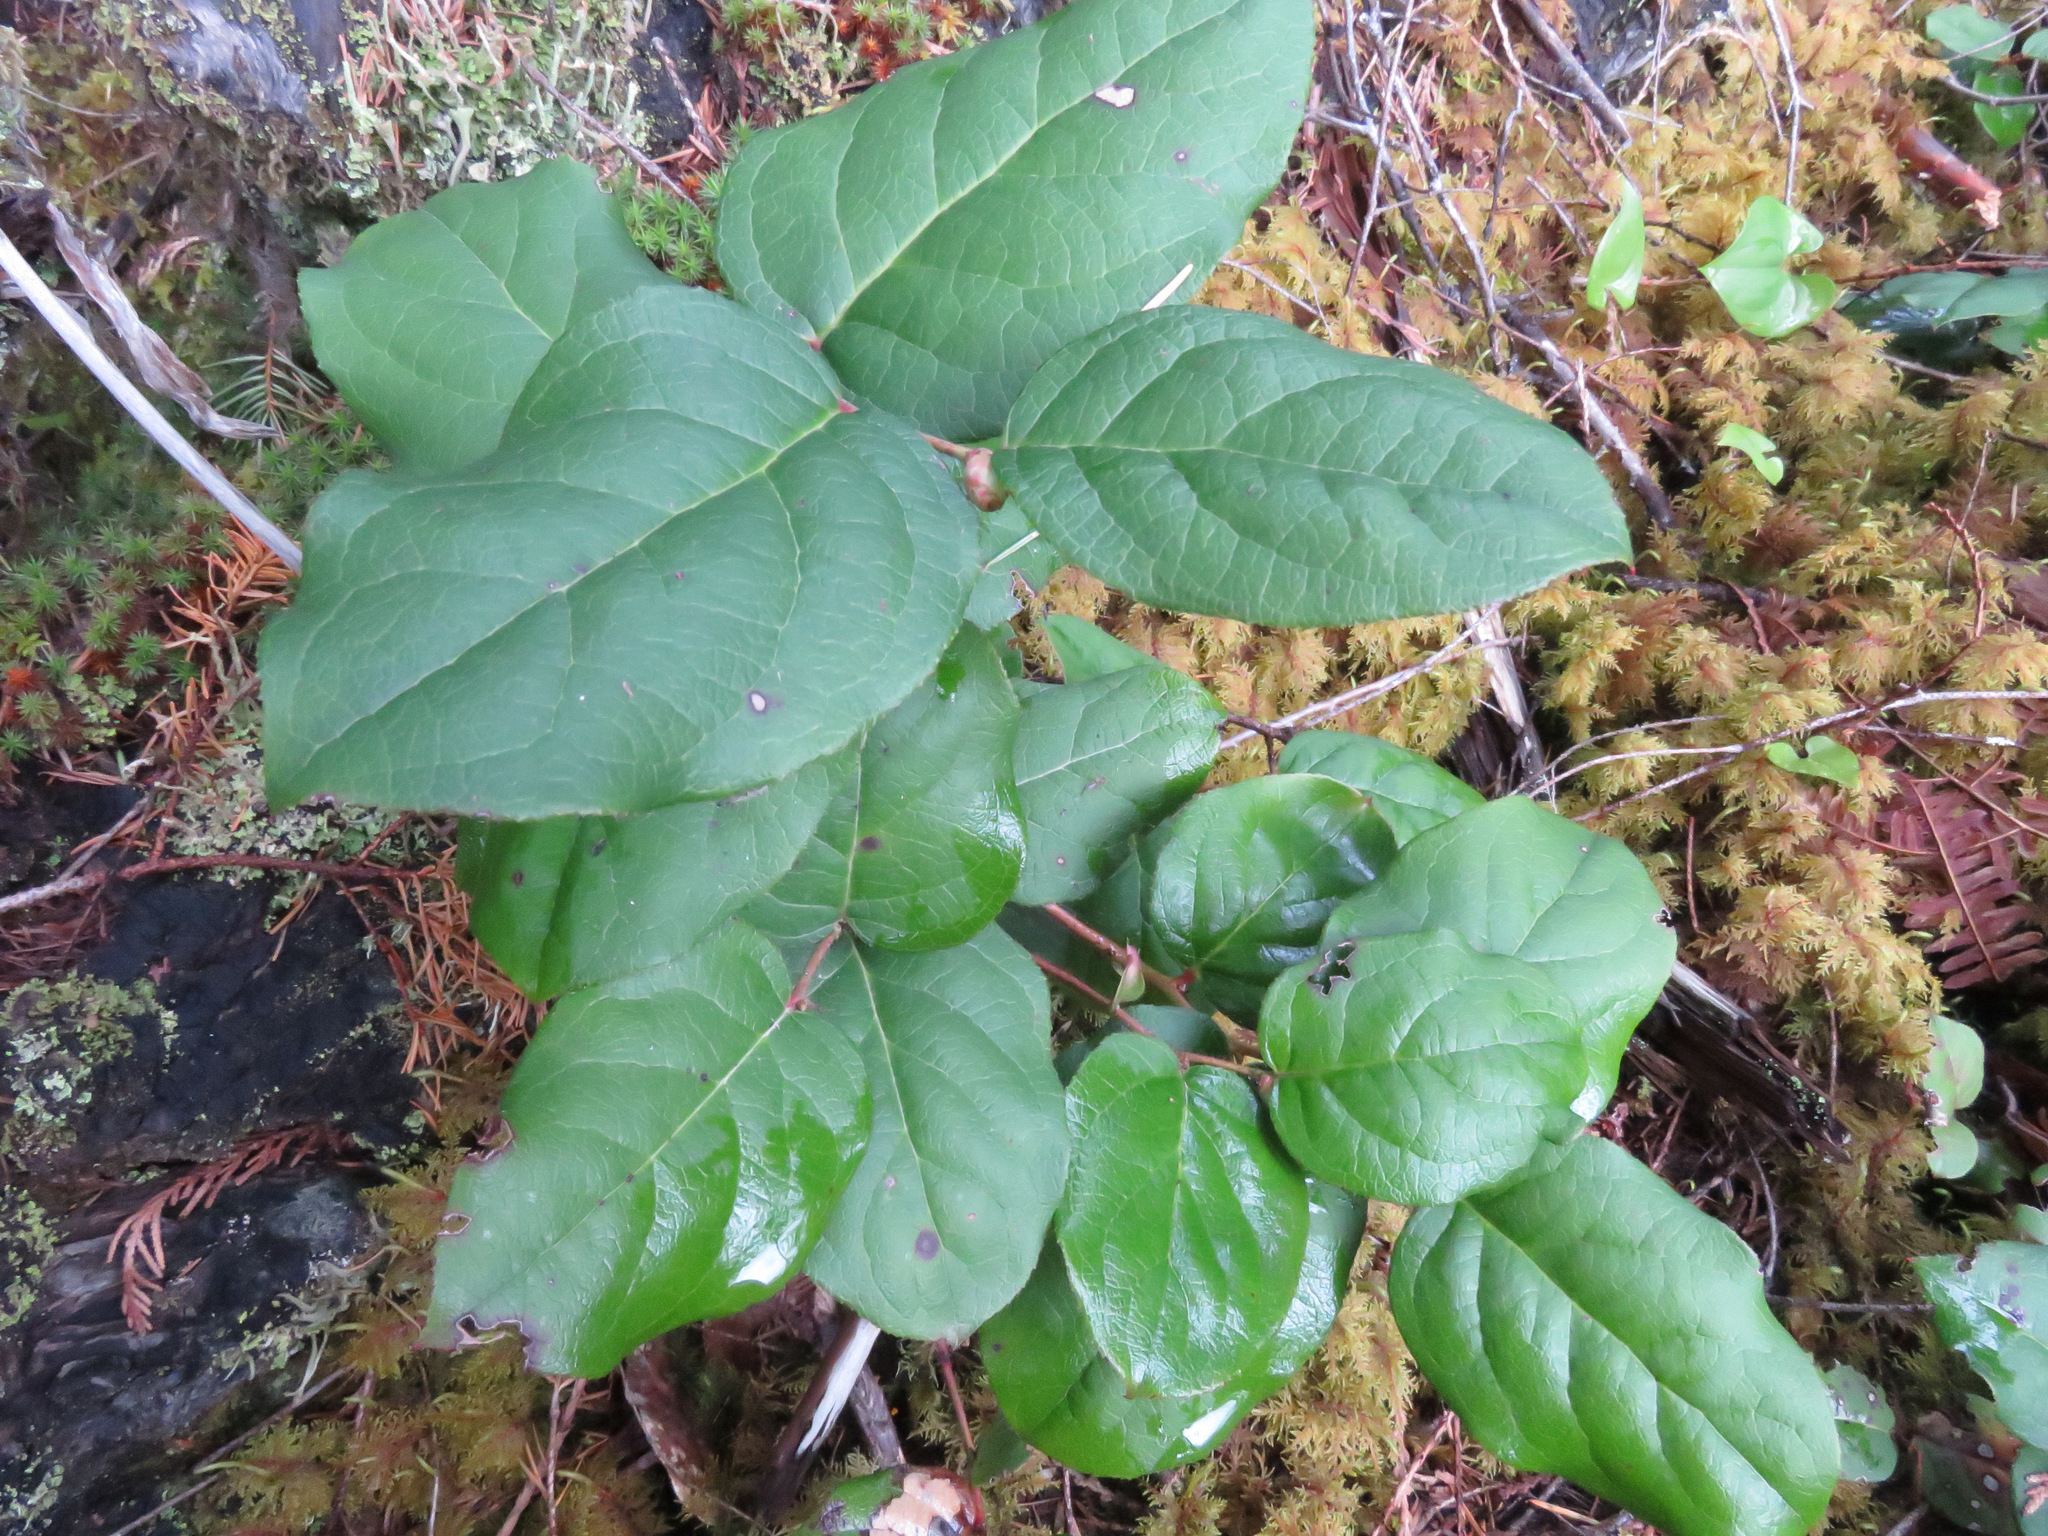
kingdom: Plantae
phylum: Tracheophyta
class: Magnoliopsida
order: Ericales
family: Ericaceae
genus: Gaultheria
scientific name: Gaultheria shallon
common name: Shallon
